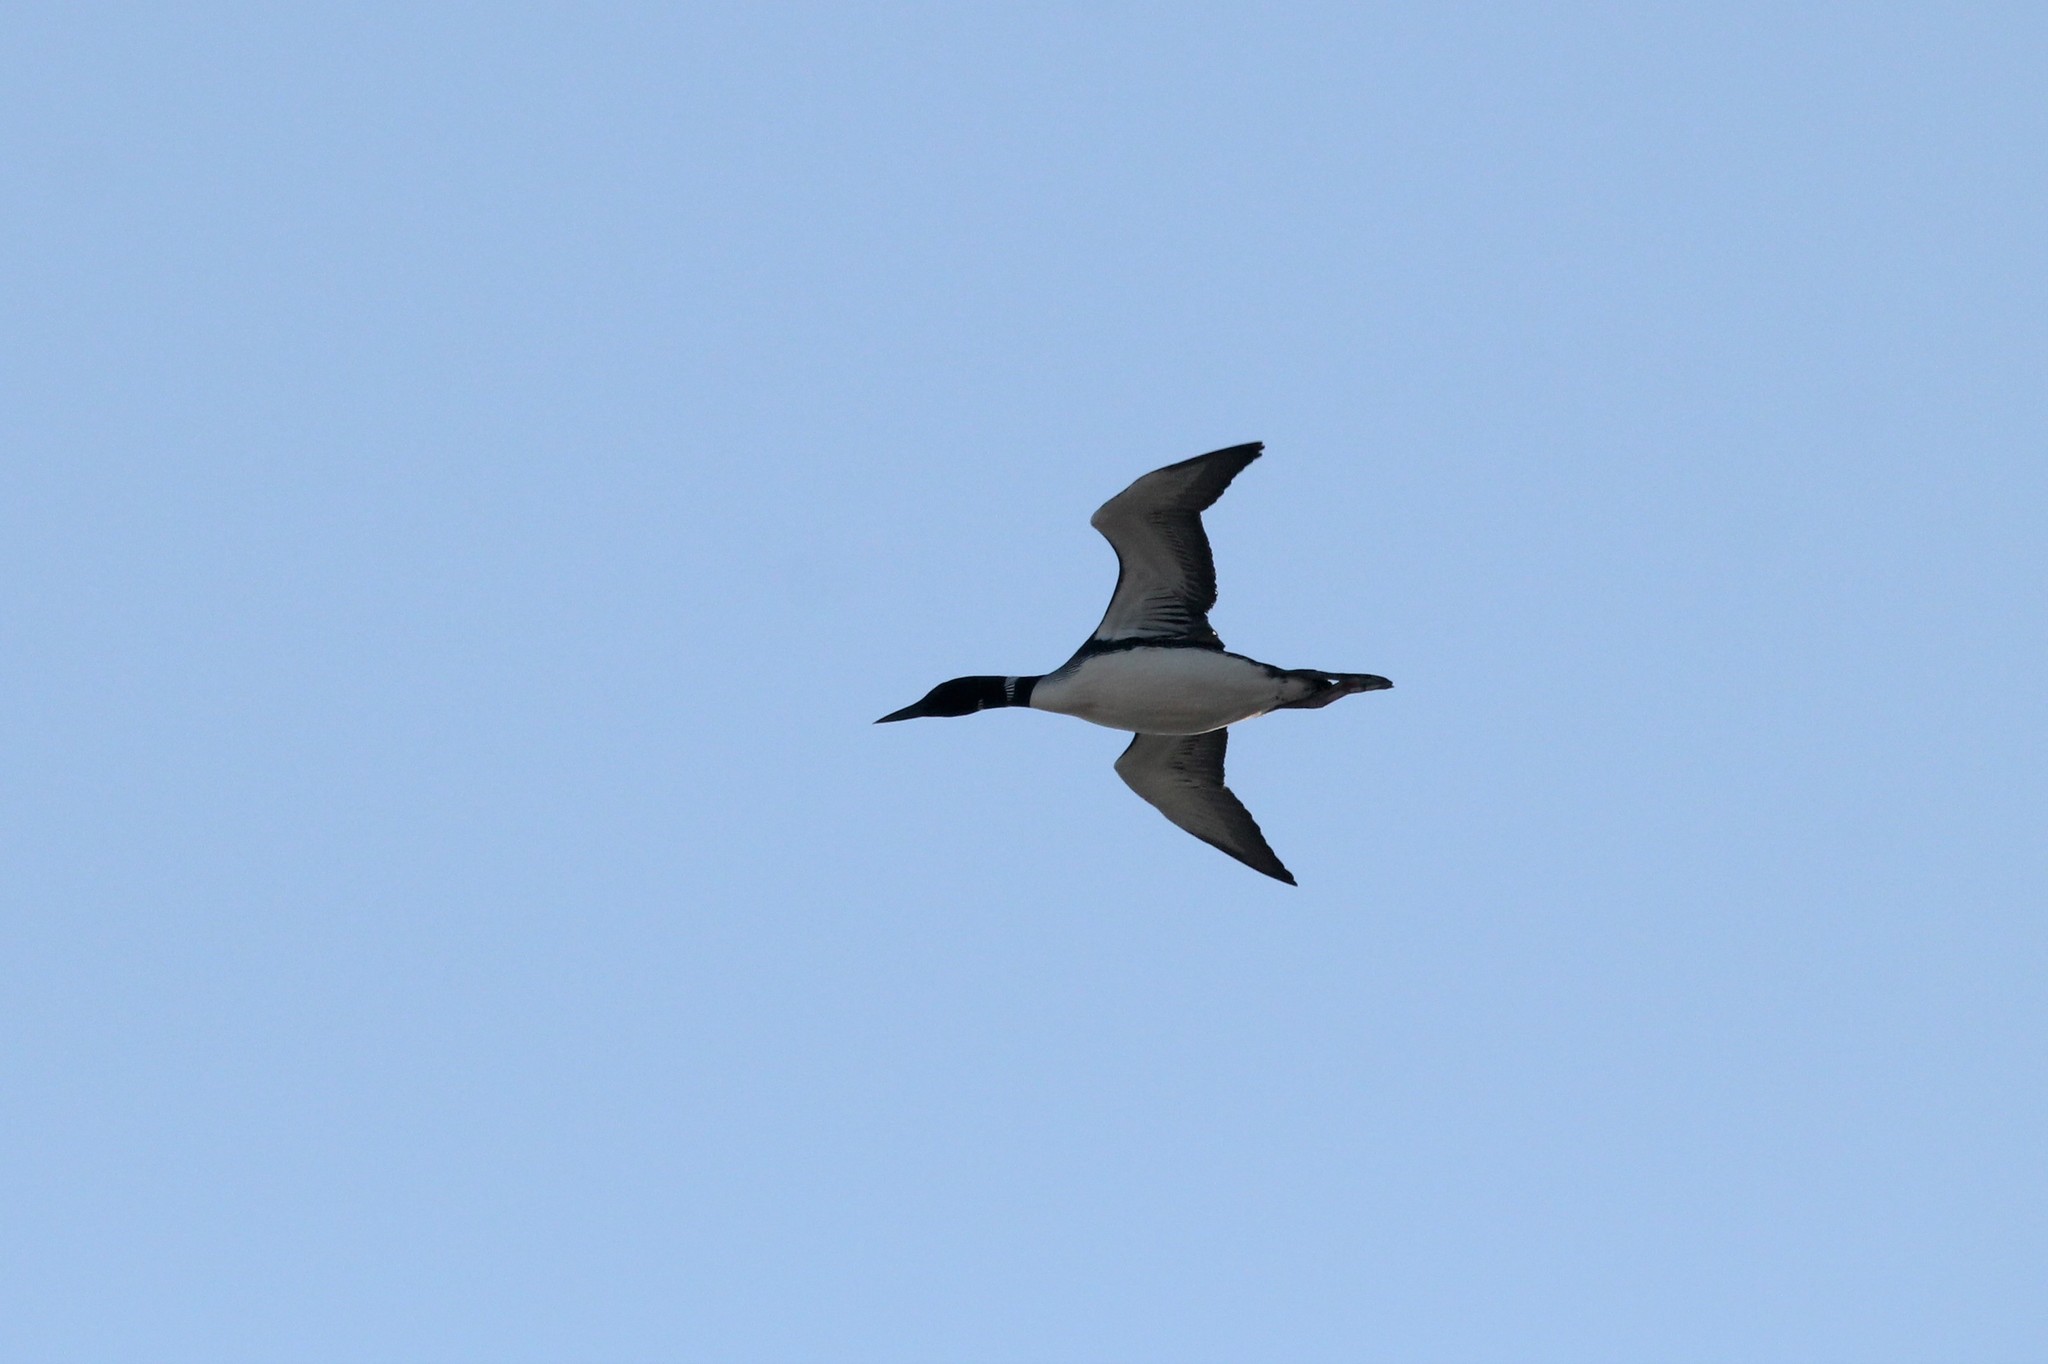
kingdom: Animalia
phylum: Chordata
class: Aves
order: Gaviiformes
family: Gaviidae
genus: Gavia
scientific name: Gavia immer
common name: Common loon
